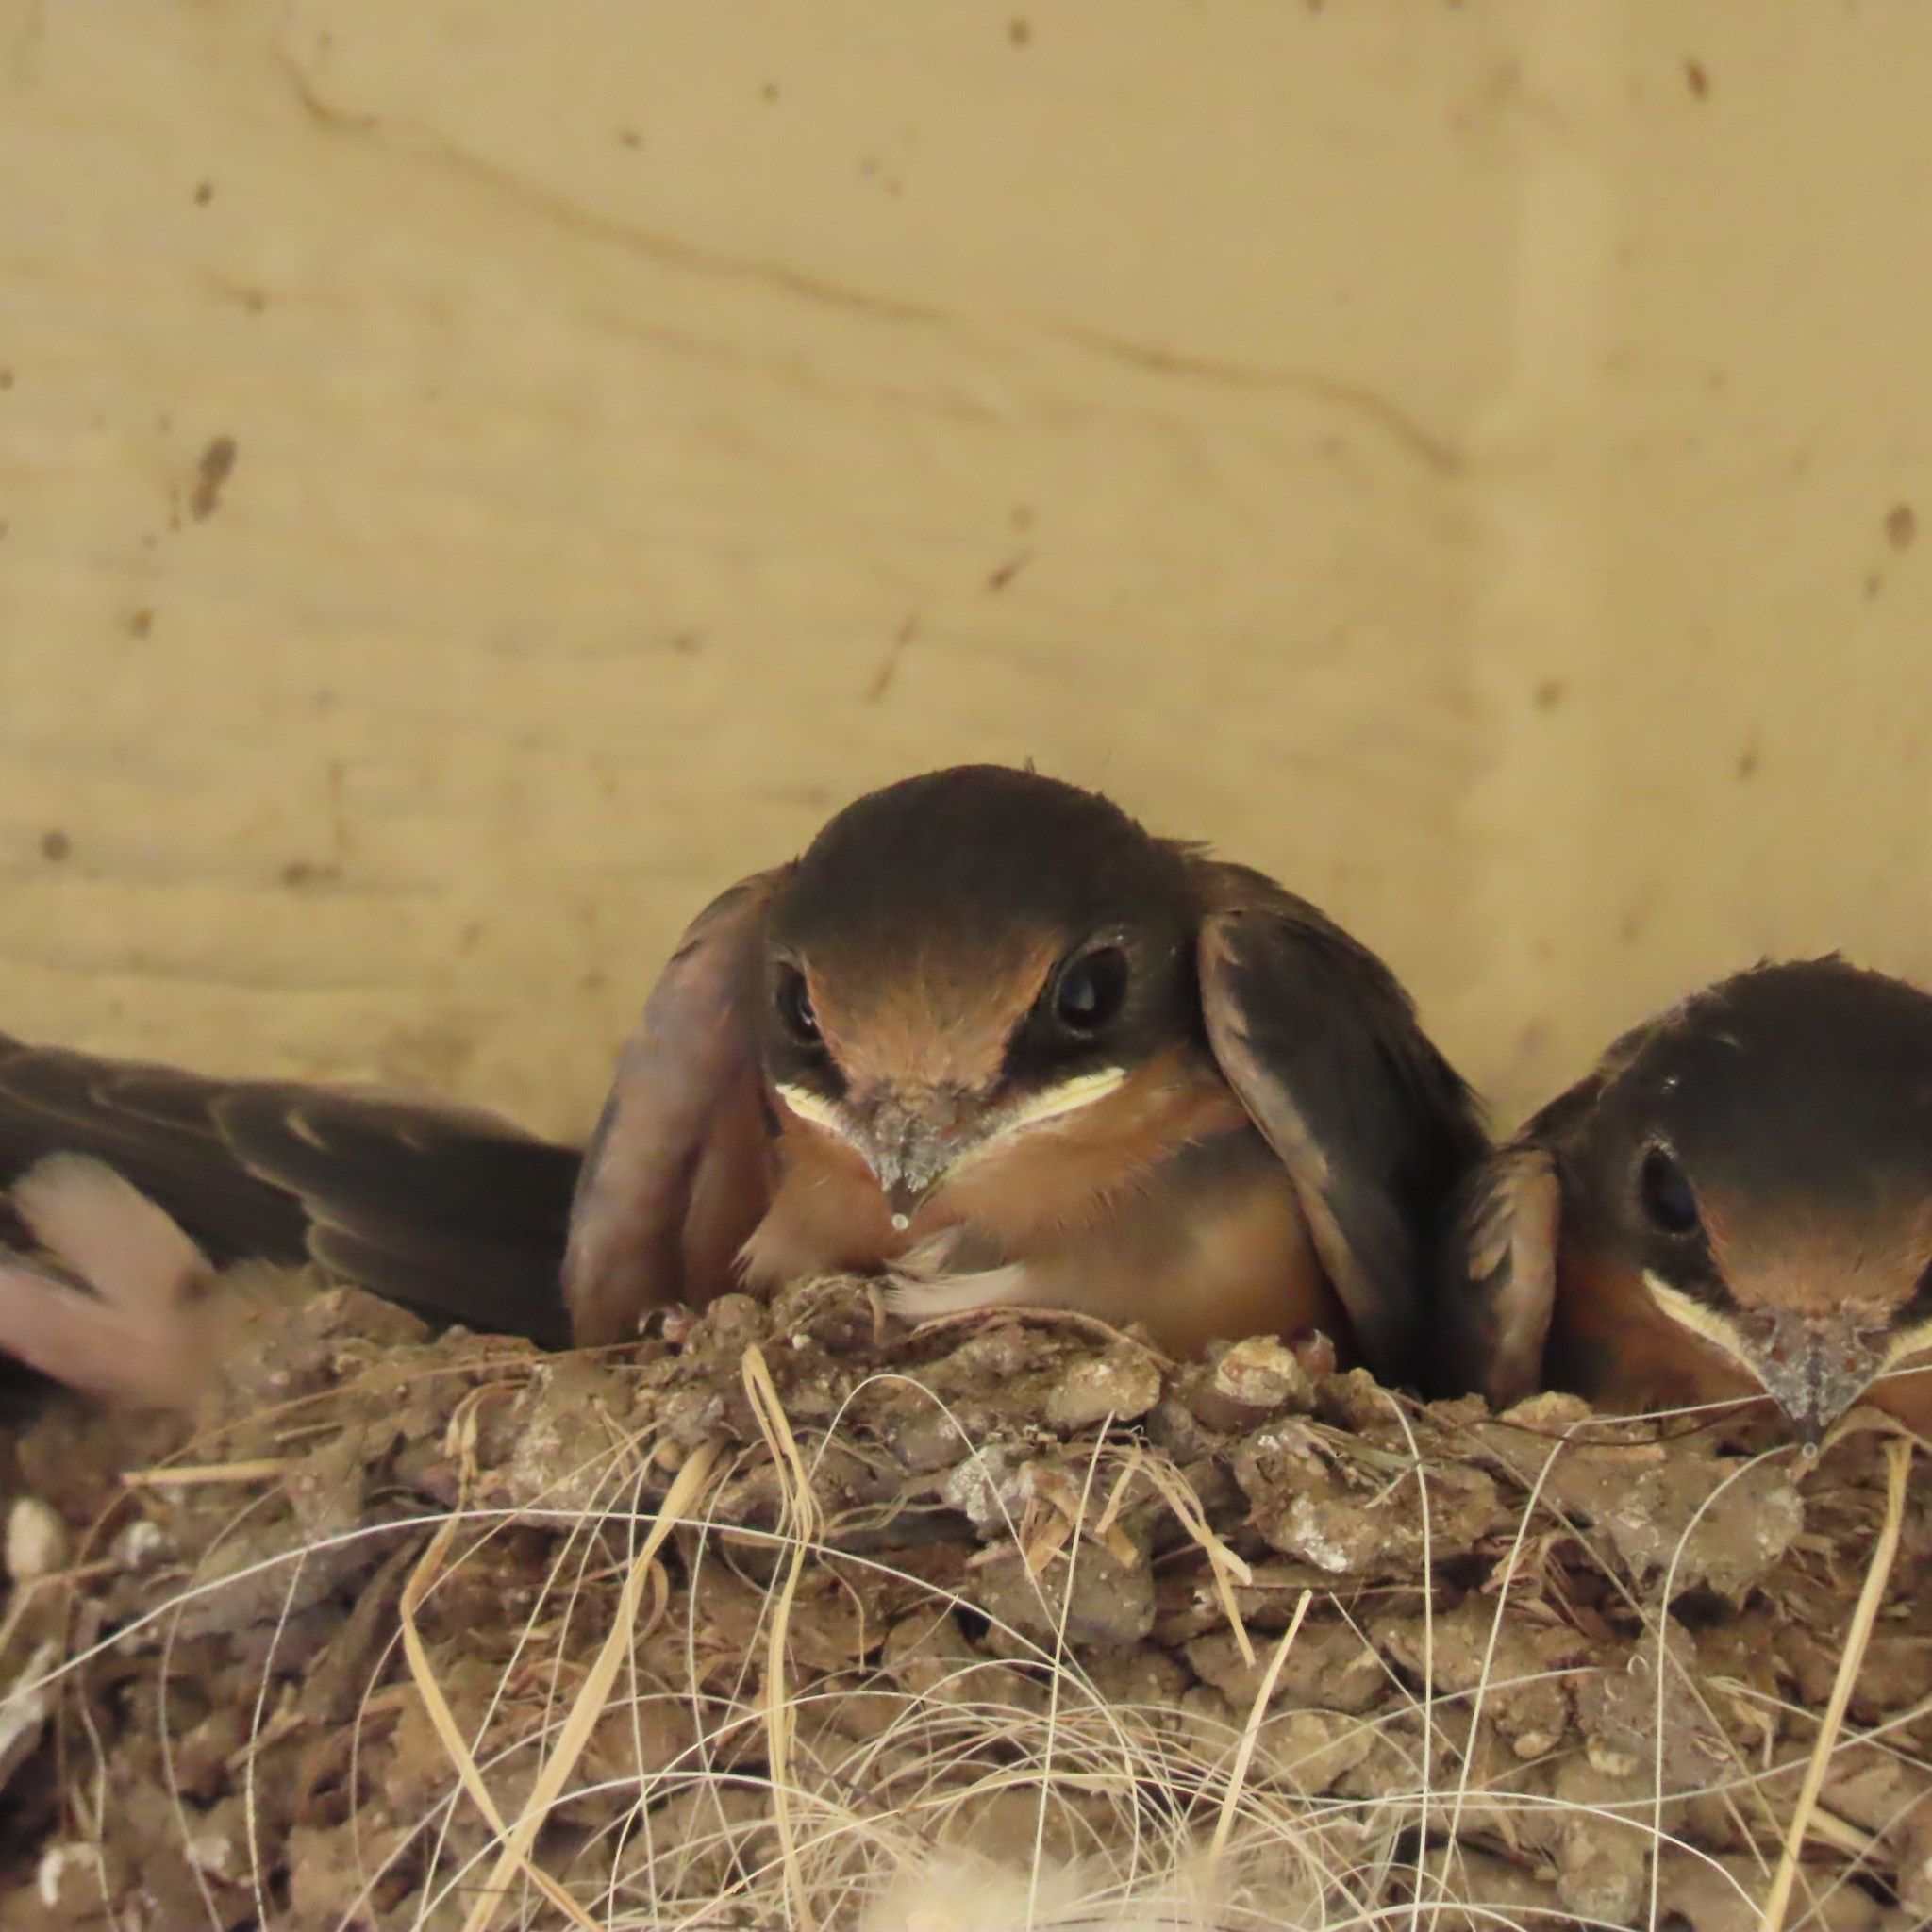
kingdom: Animalia
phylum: Chordata
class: Aves
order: Passeriformes
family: Hirundinidae
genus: Hirundo
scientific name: Hirundo rustica
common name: Barn swallow
